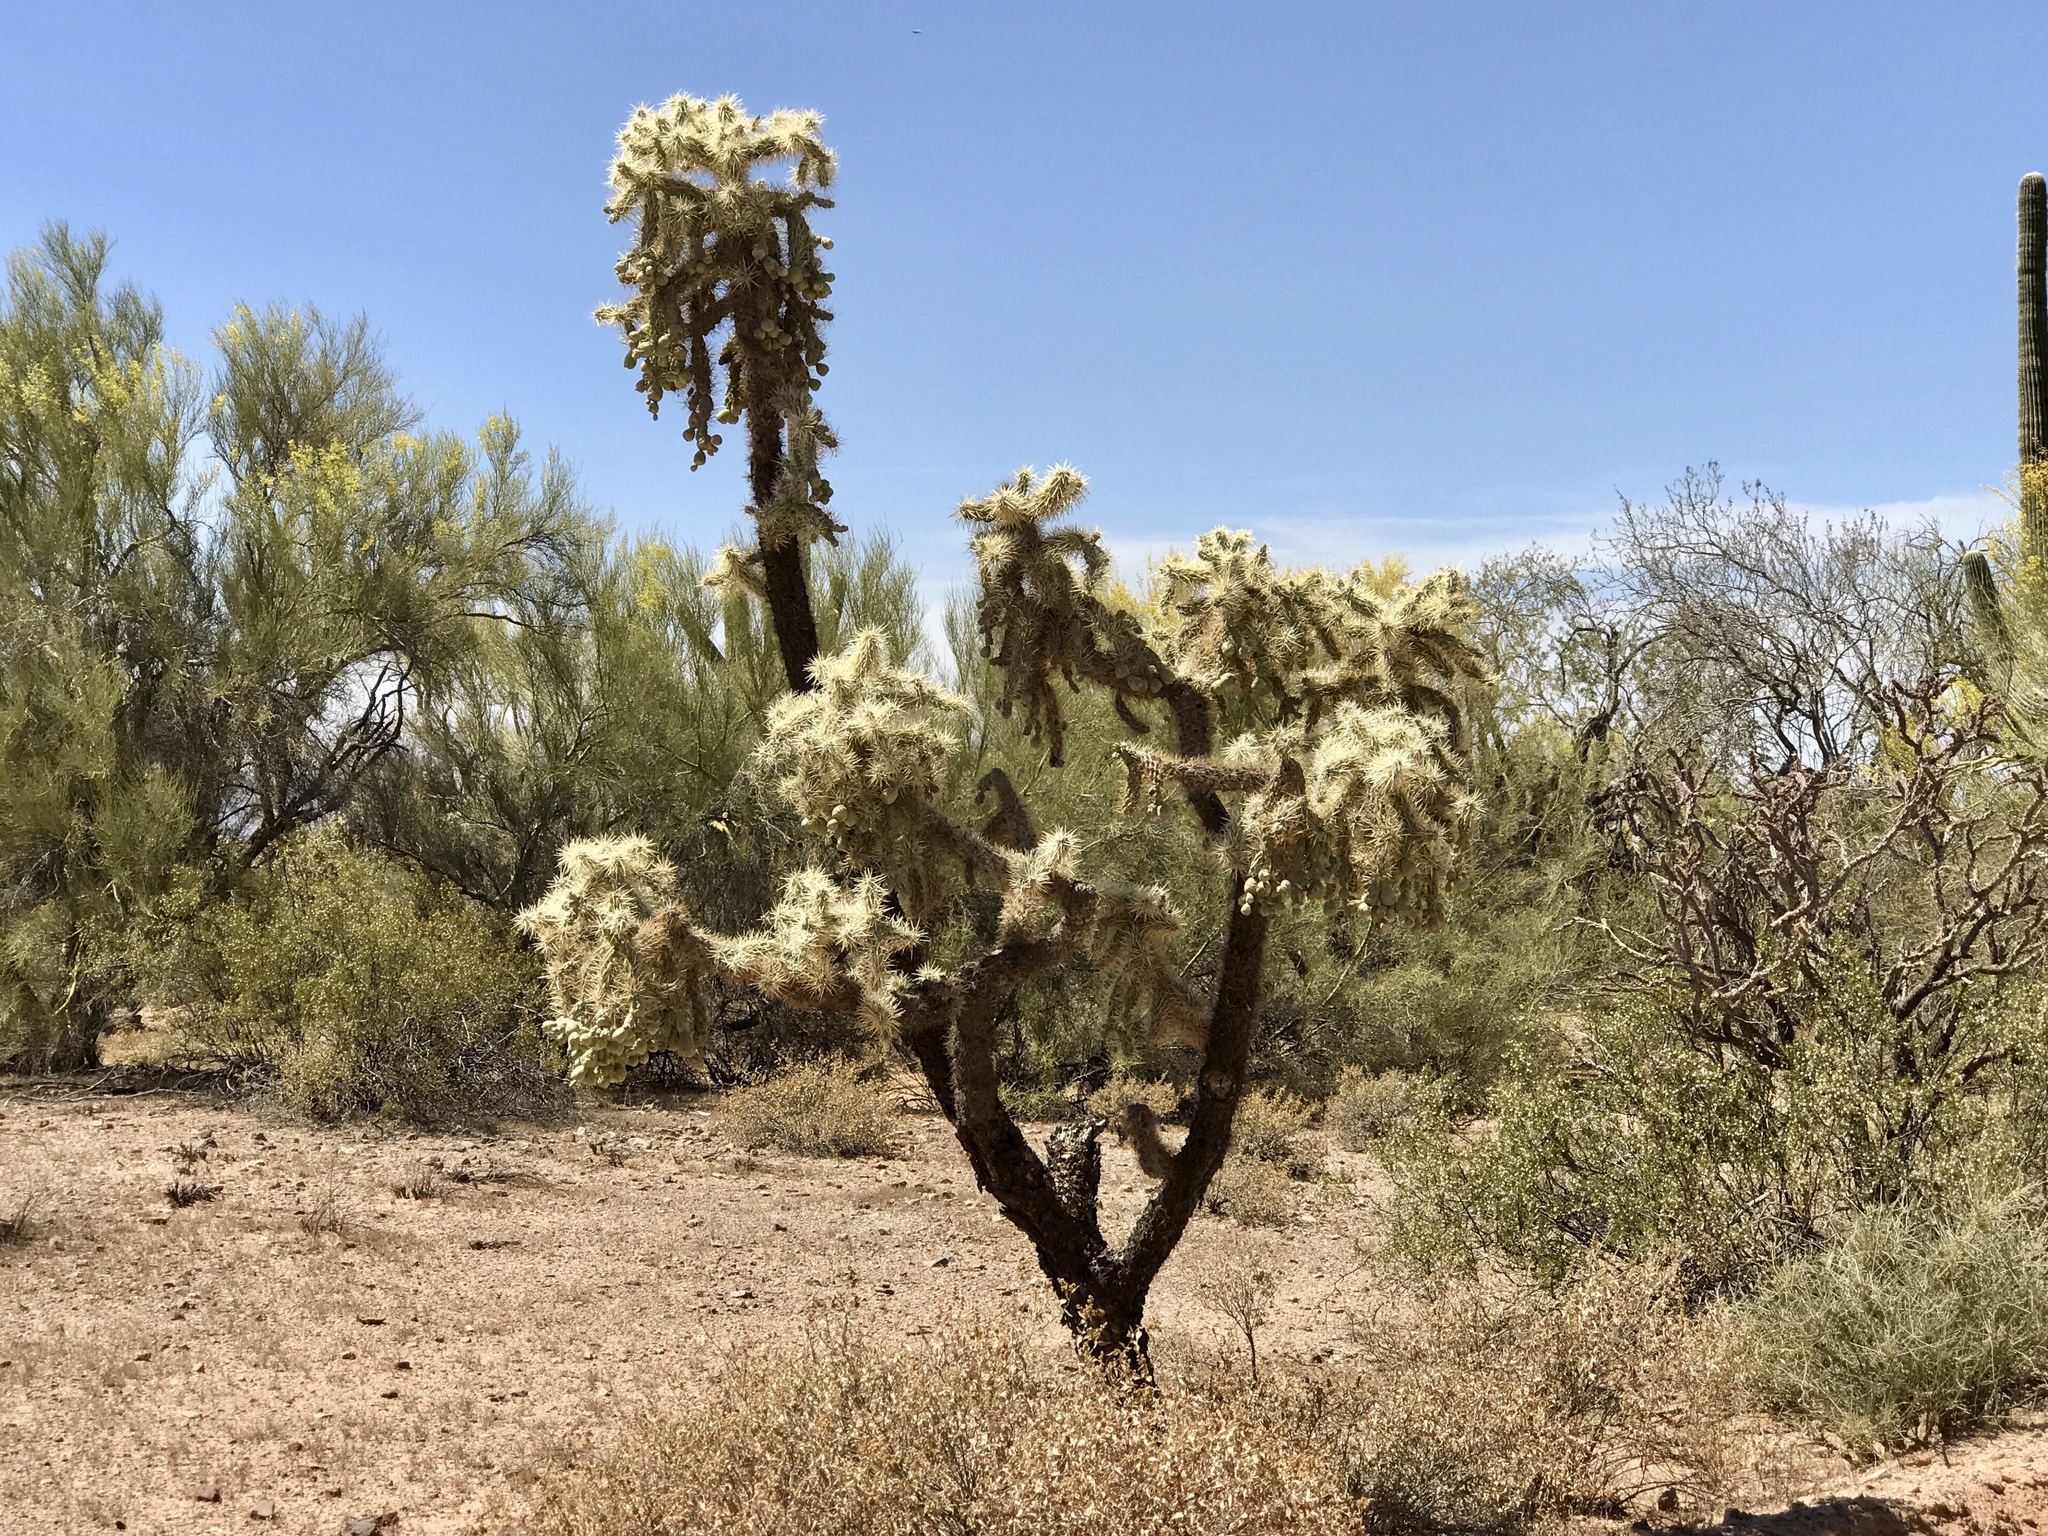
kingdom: Plantae
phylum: Tracheophyta
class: Magnoliopsida
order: Caryophyllales
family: Cactaceae
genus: Cylindropuntia
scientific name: Cylindropuntia fulgida
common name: Jumping cholla
